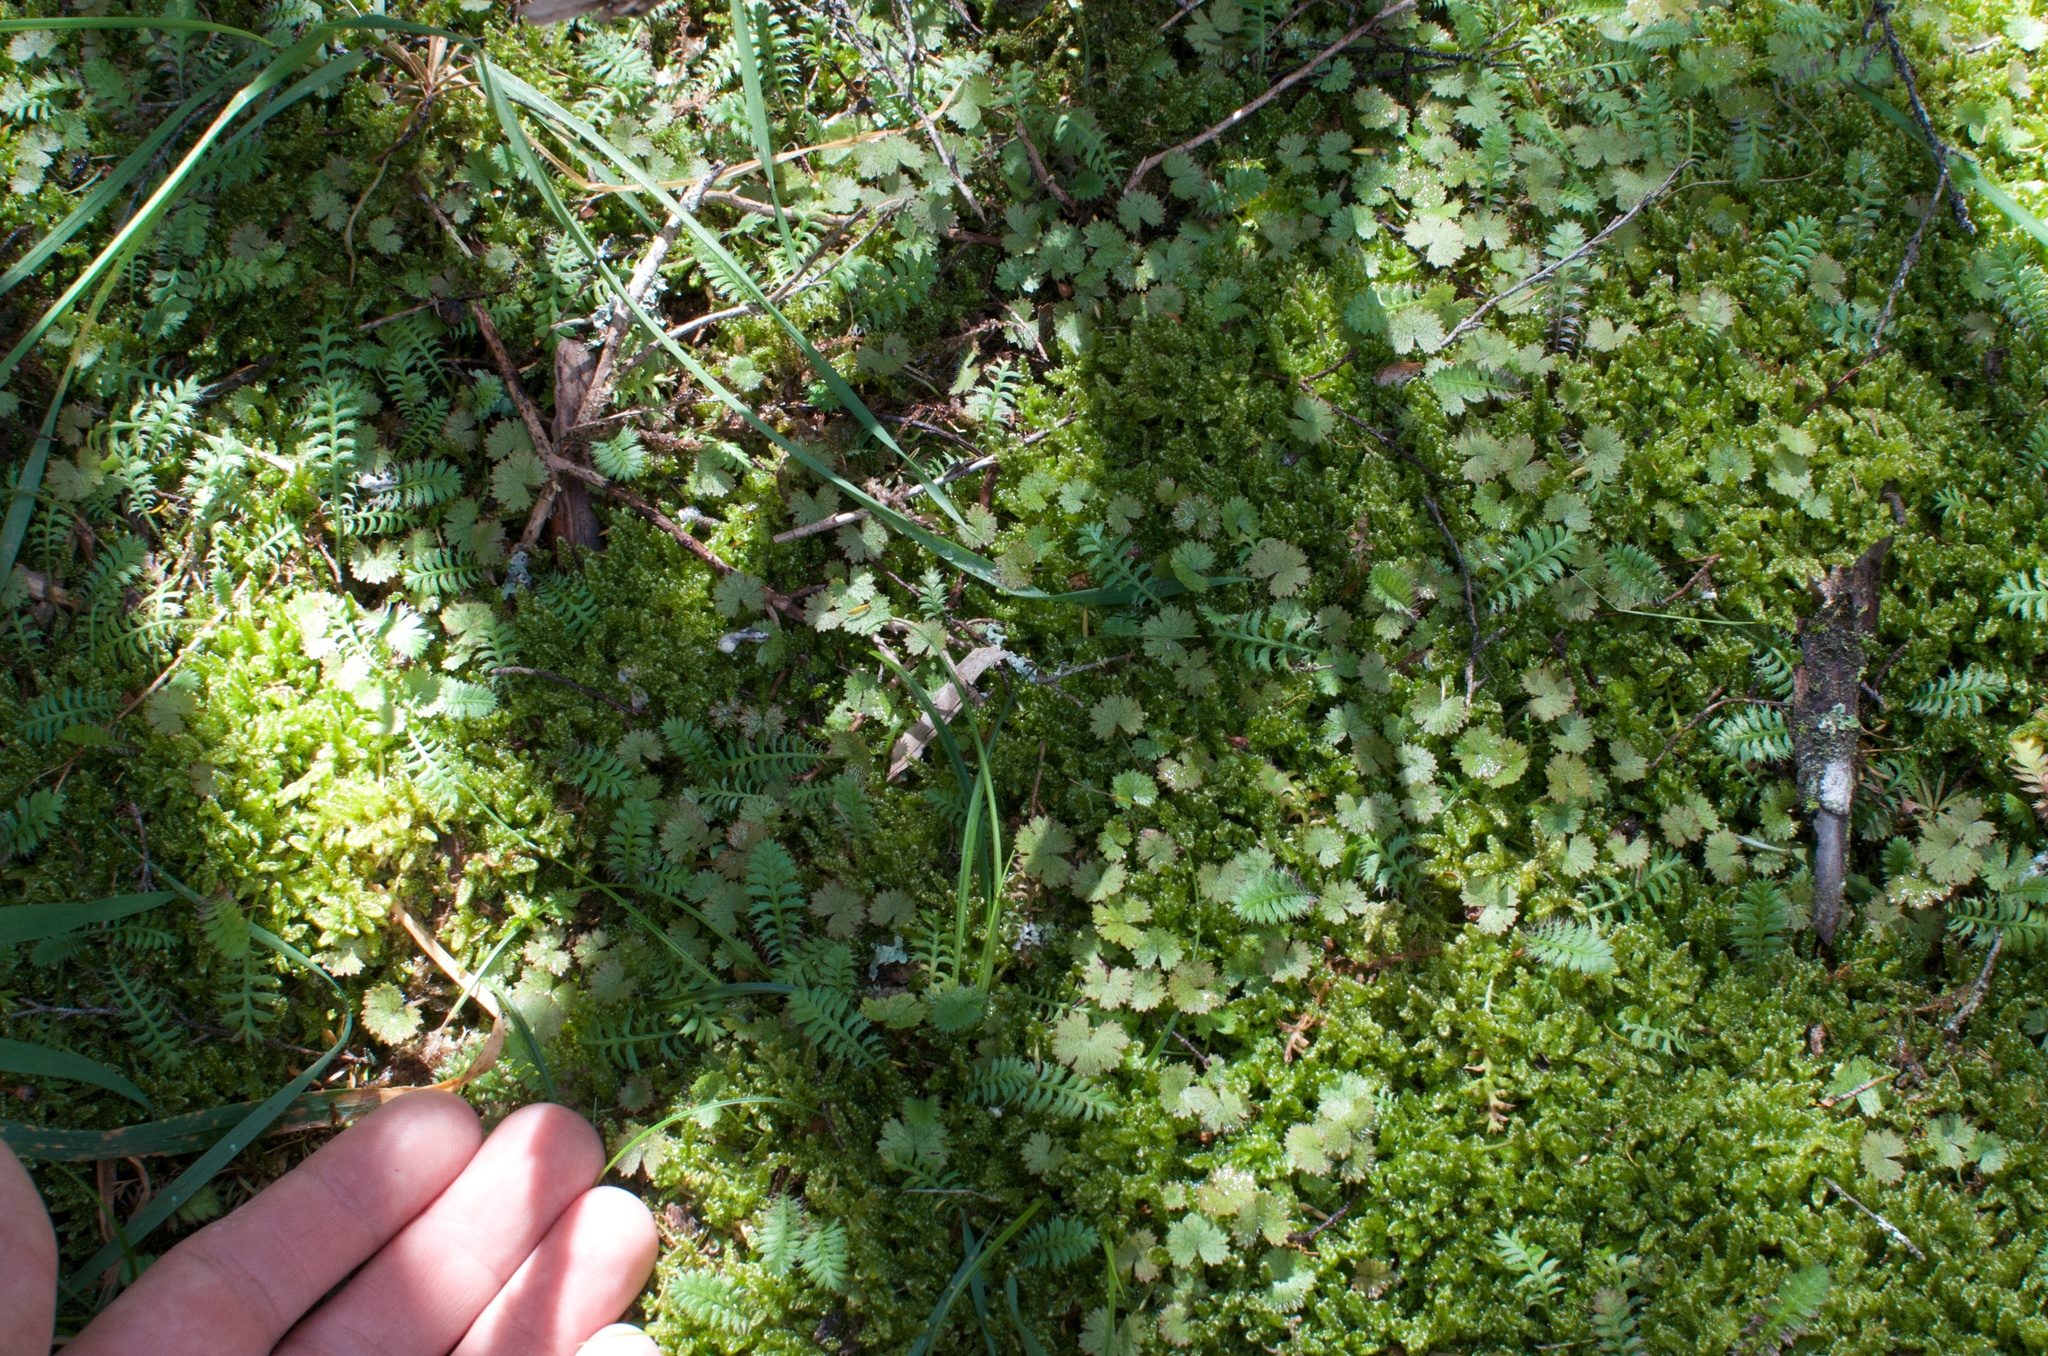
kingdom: Plantae
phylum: Tracheophyta
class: Magnoliopsida
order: Apiales
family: Araliaceae
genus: Hydrocotyle
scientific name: Hydrocotyle moschata
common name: Hairy pennywort
